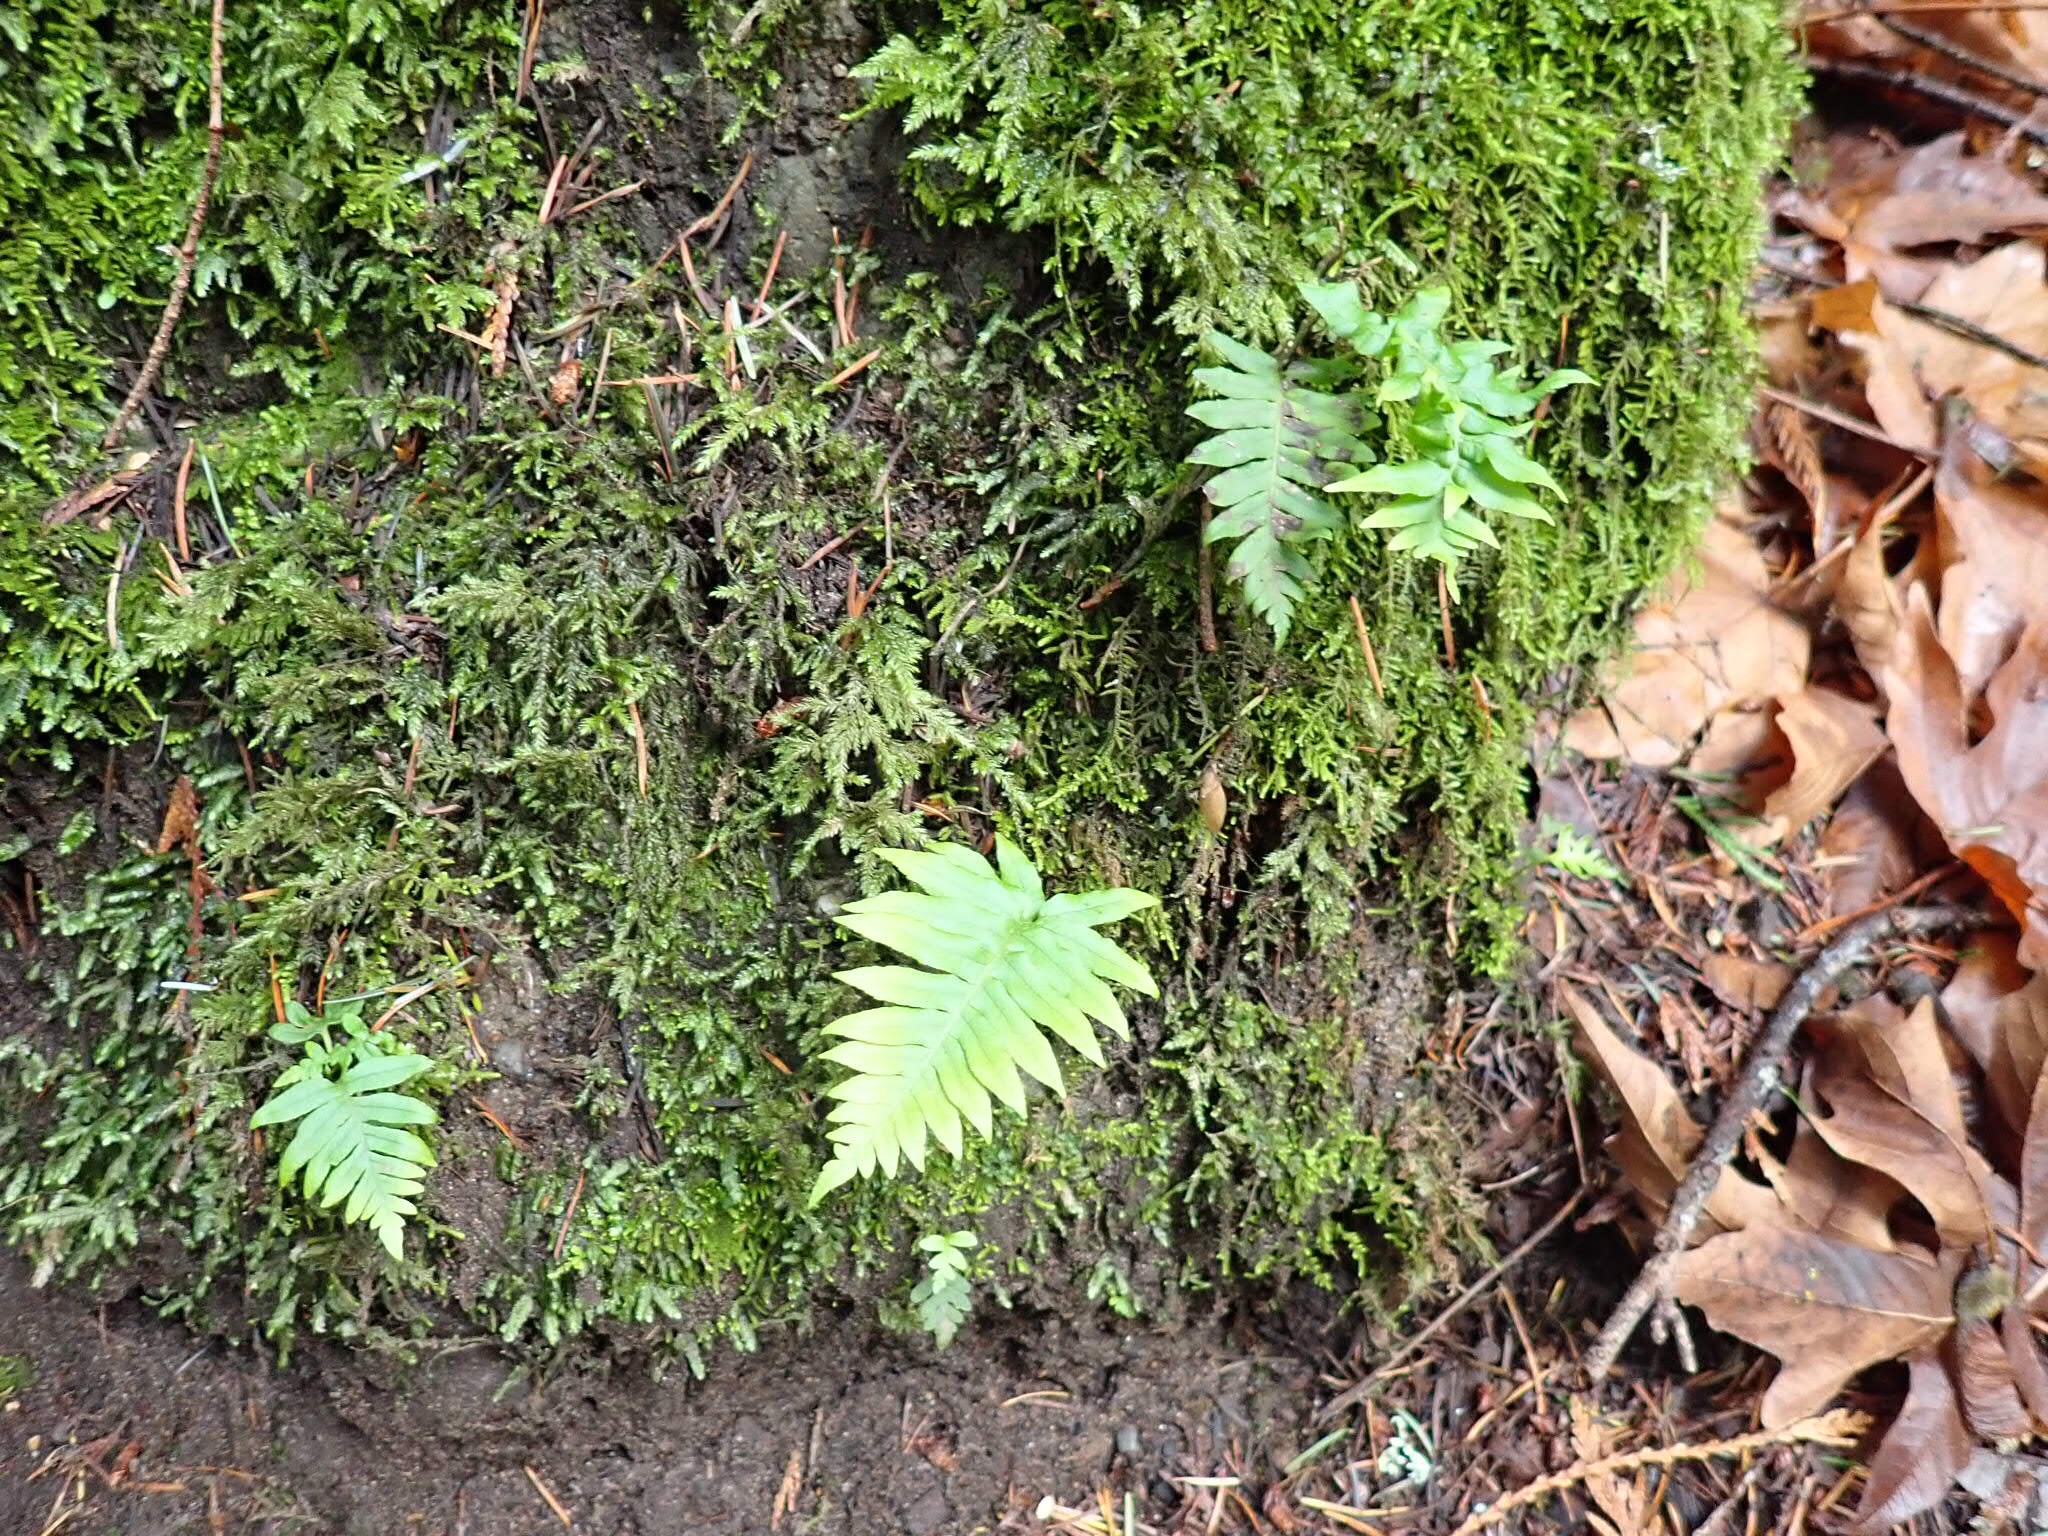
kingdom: Plantae
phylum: Tracheophyta
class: Polypodiopsida
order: Polypodiales
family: Polypodiaceae
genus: Polypodium
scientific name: Polypodium glycyrrhiza
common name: Licorice fern
